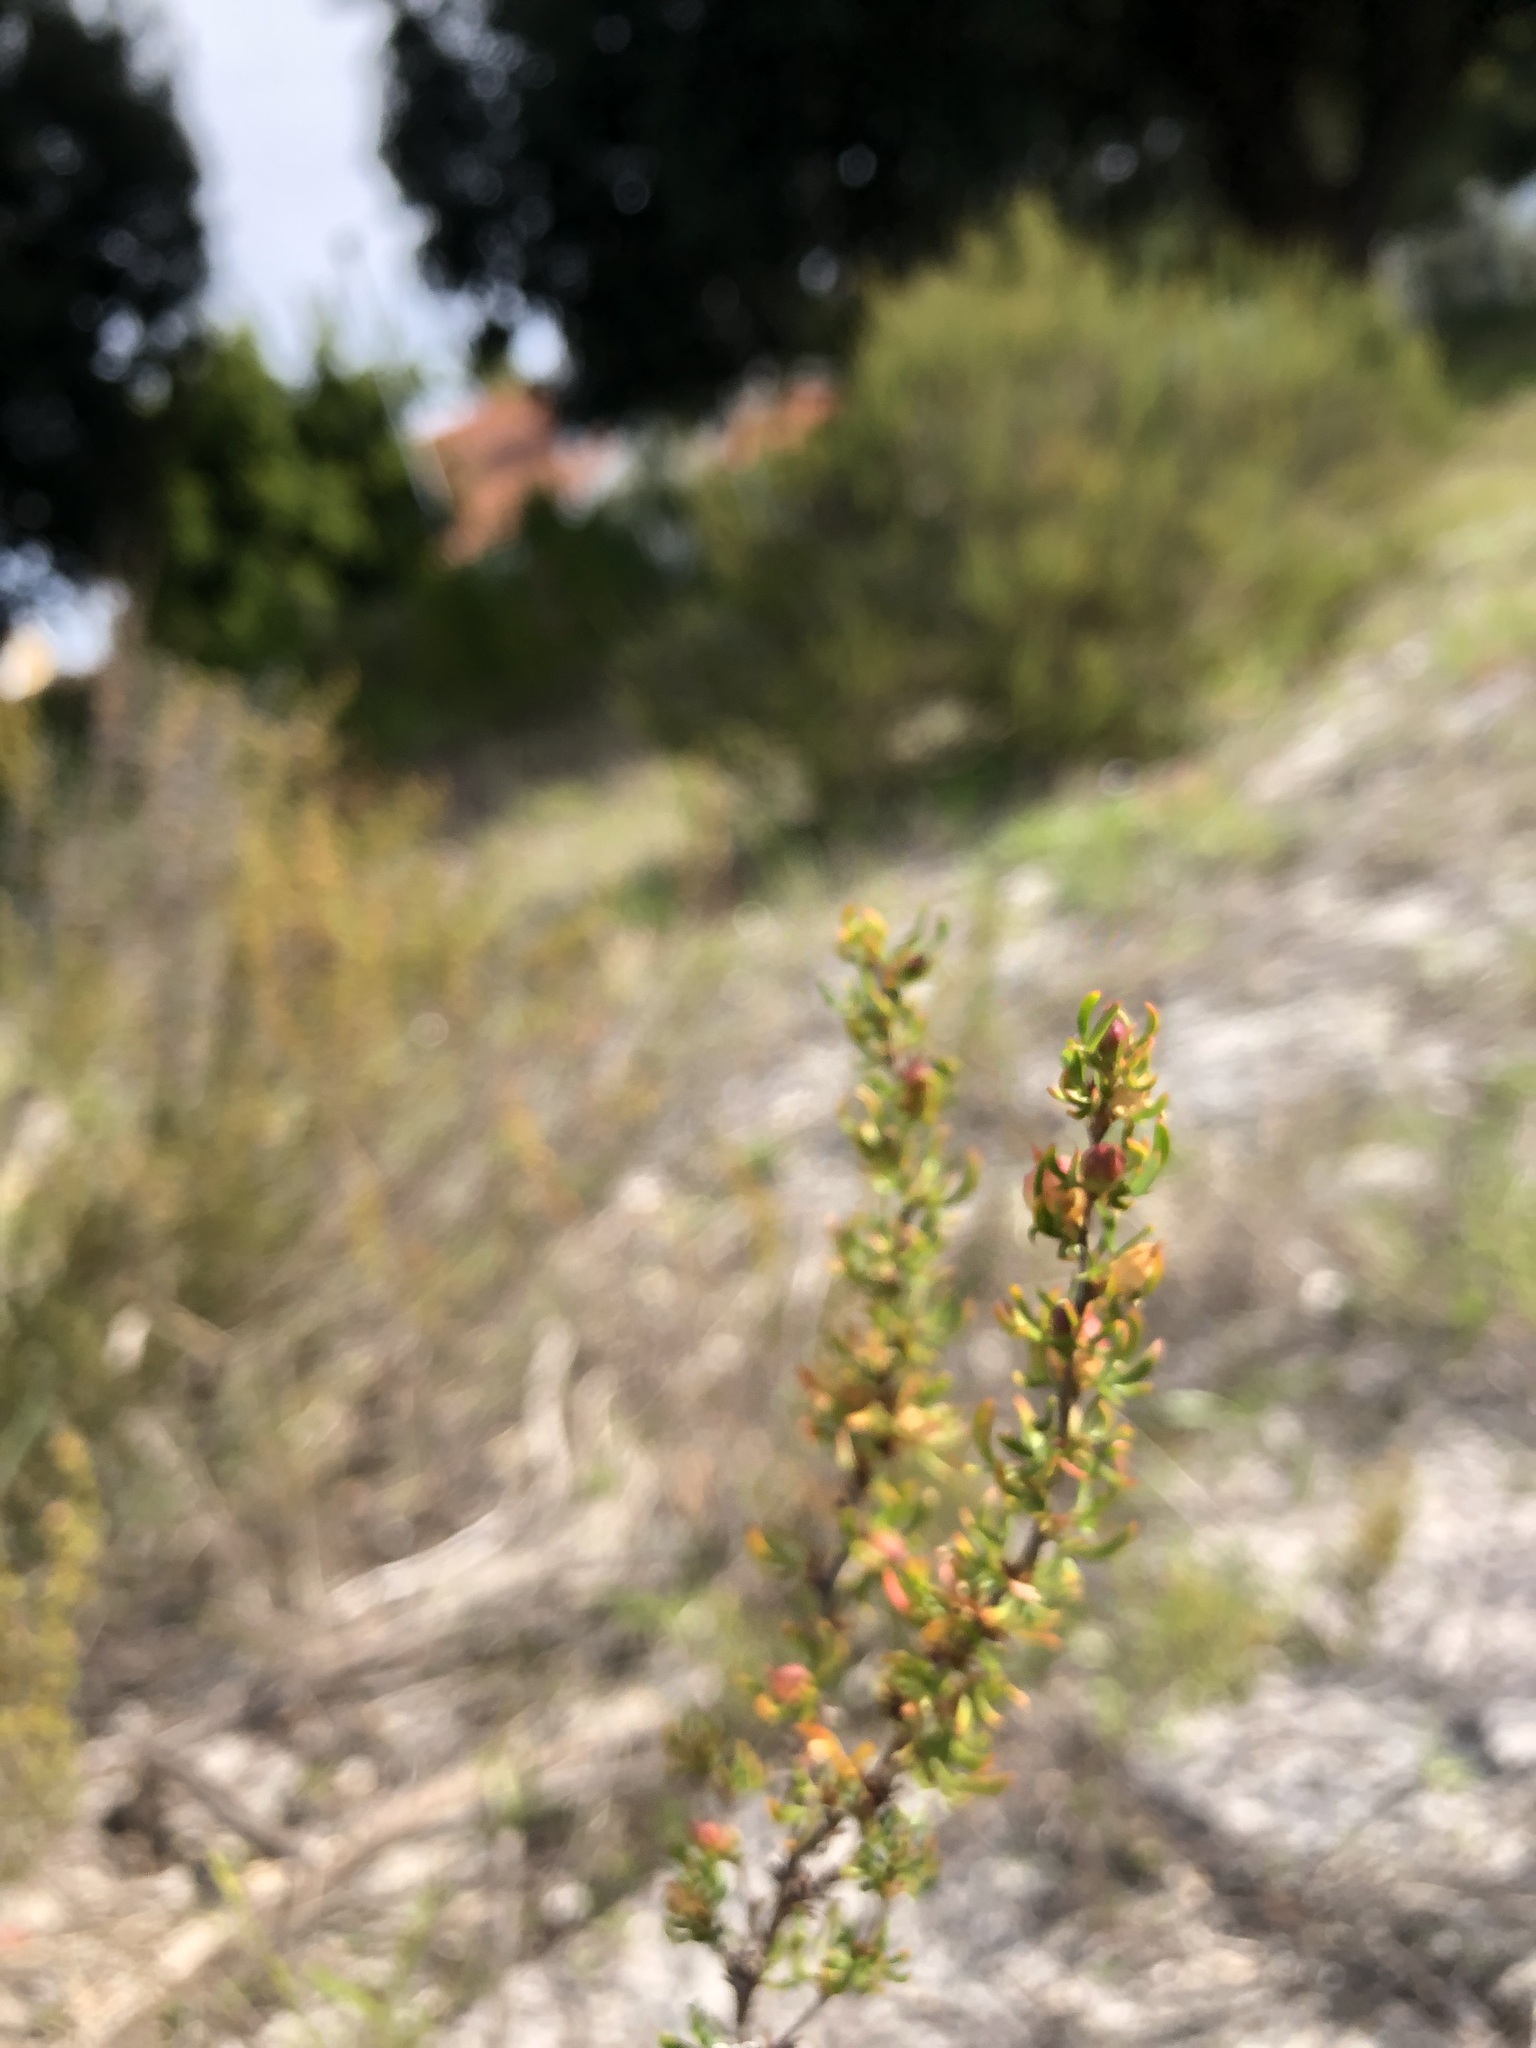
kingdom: Plantae
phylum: Tracheophyta
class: Magnoliopsida
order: Rosales
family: Rosaceae
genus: Cliffortia
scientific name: Cliffortia falcata
